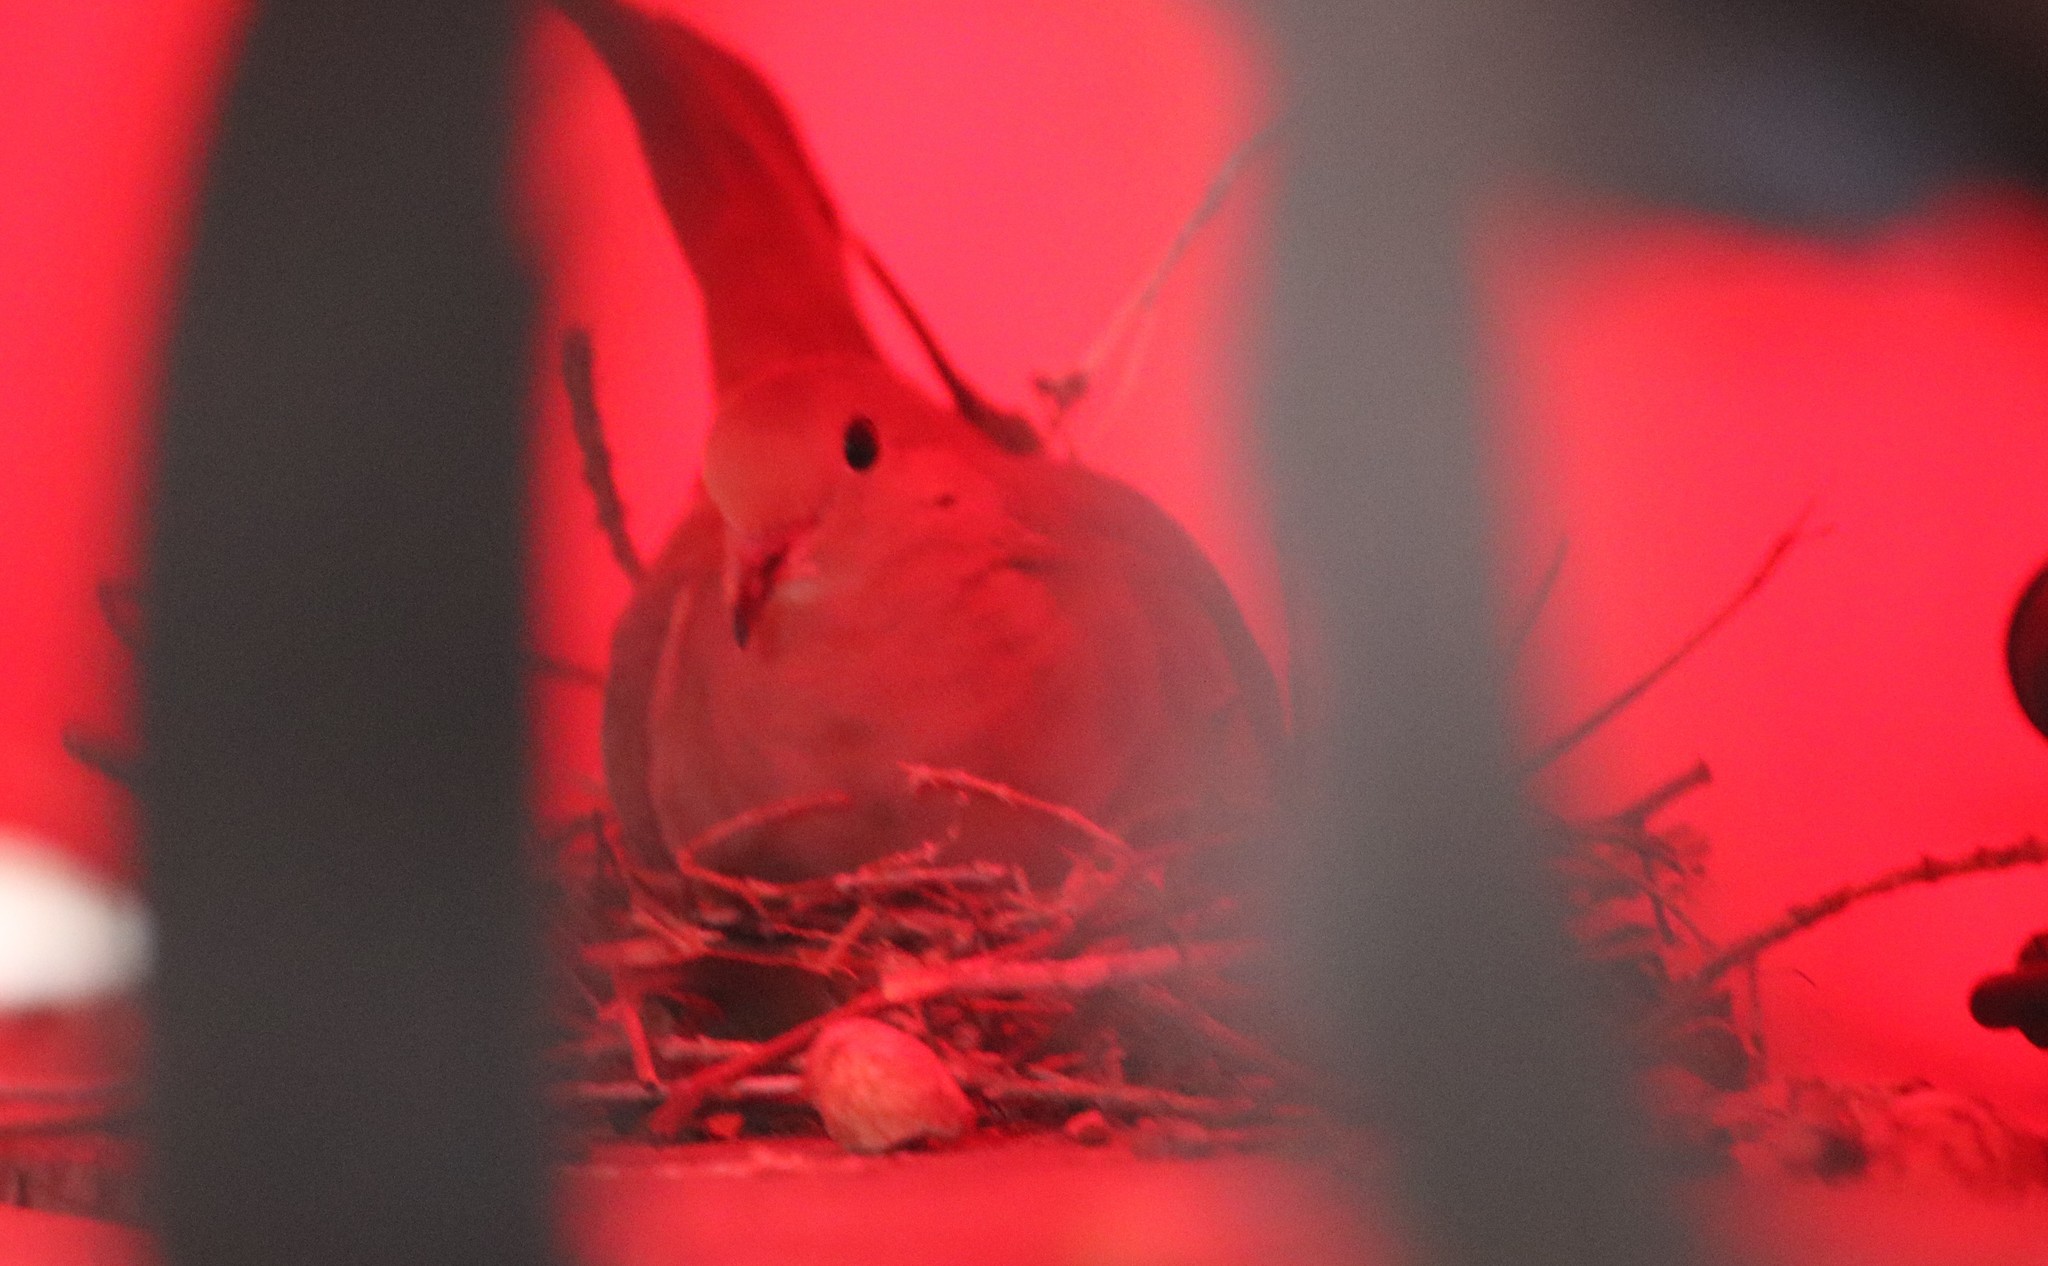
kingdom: Animalia
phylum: Chordata
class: Aves
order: Columbiformes
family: Columbidae
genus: Zenaida
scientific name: Zenaida macroura
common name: Mourning dove
